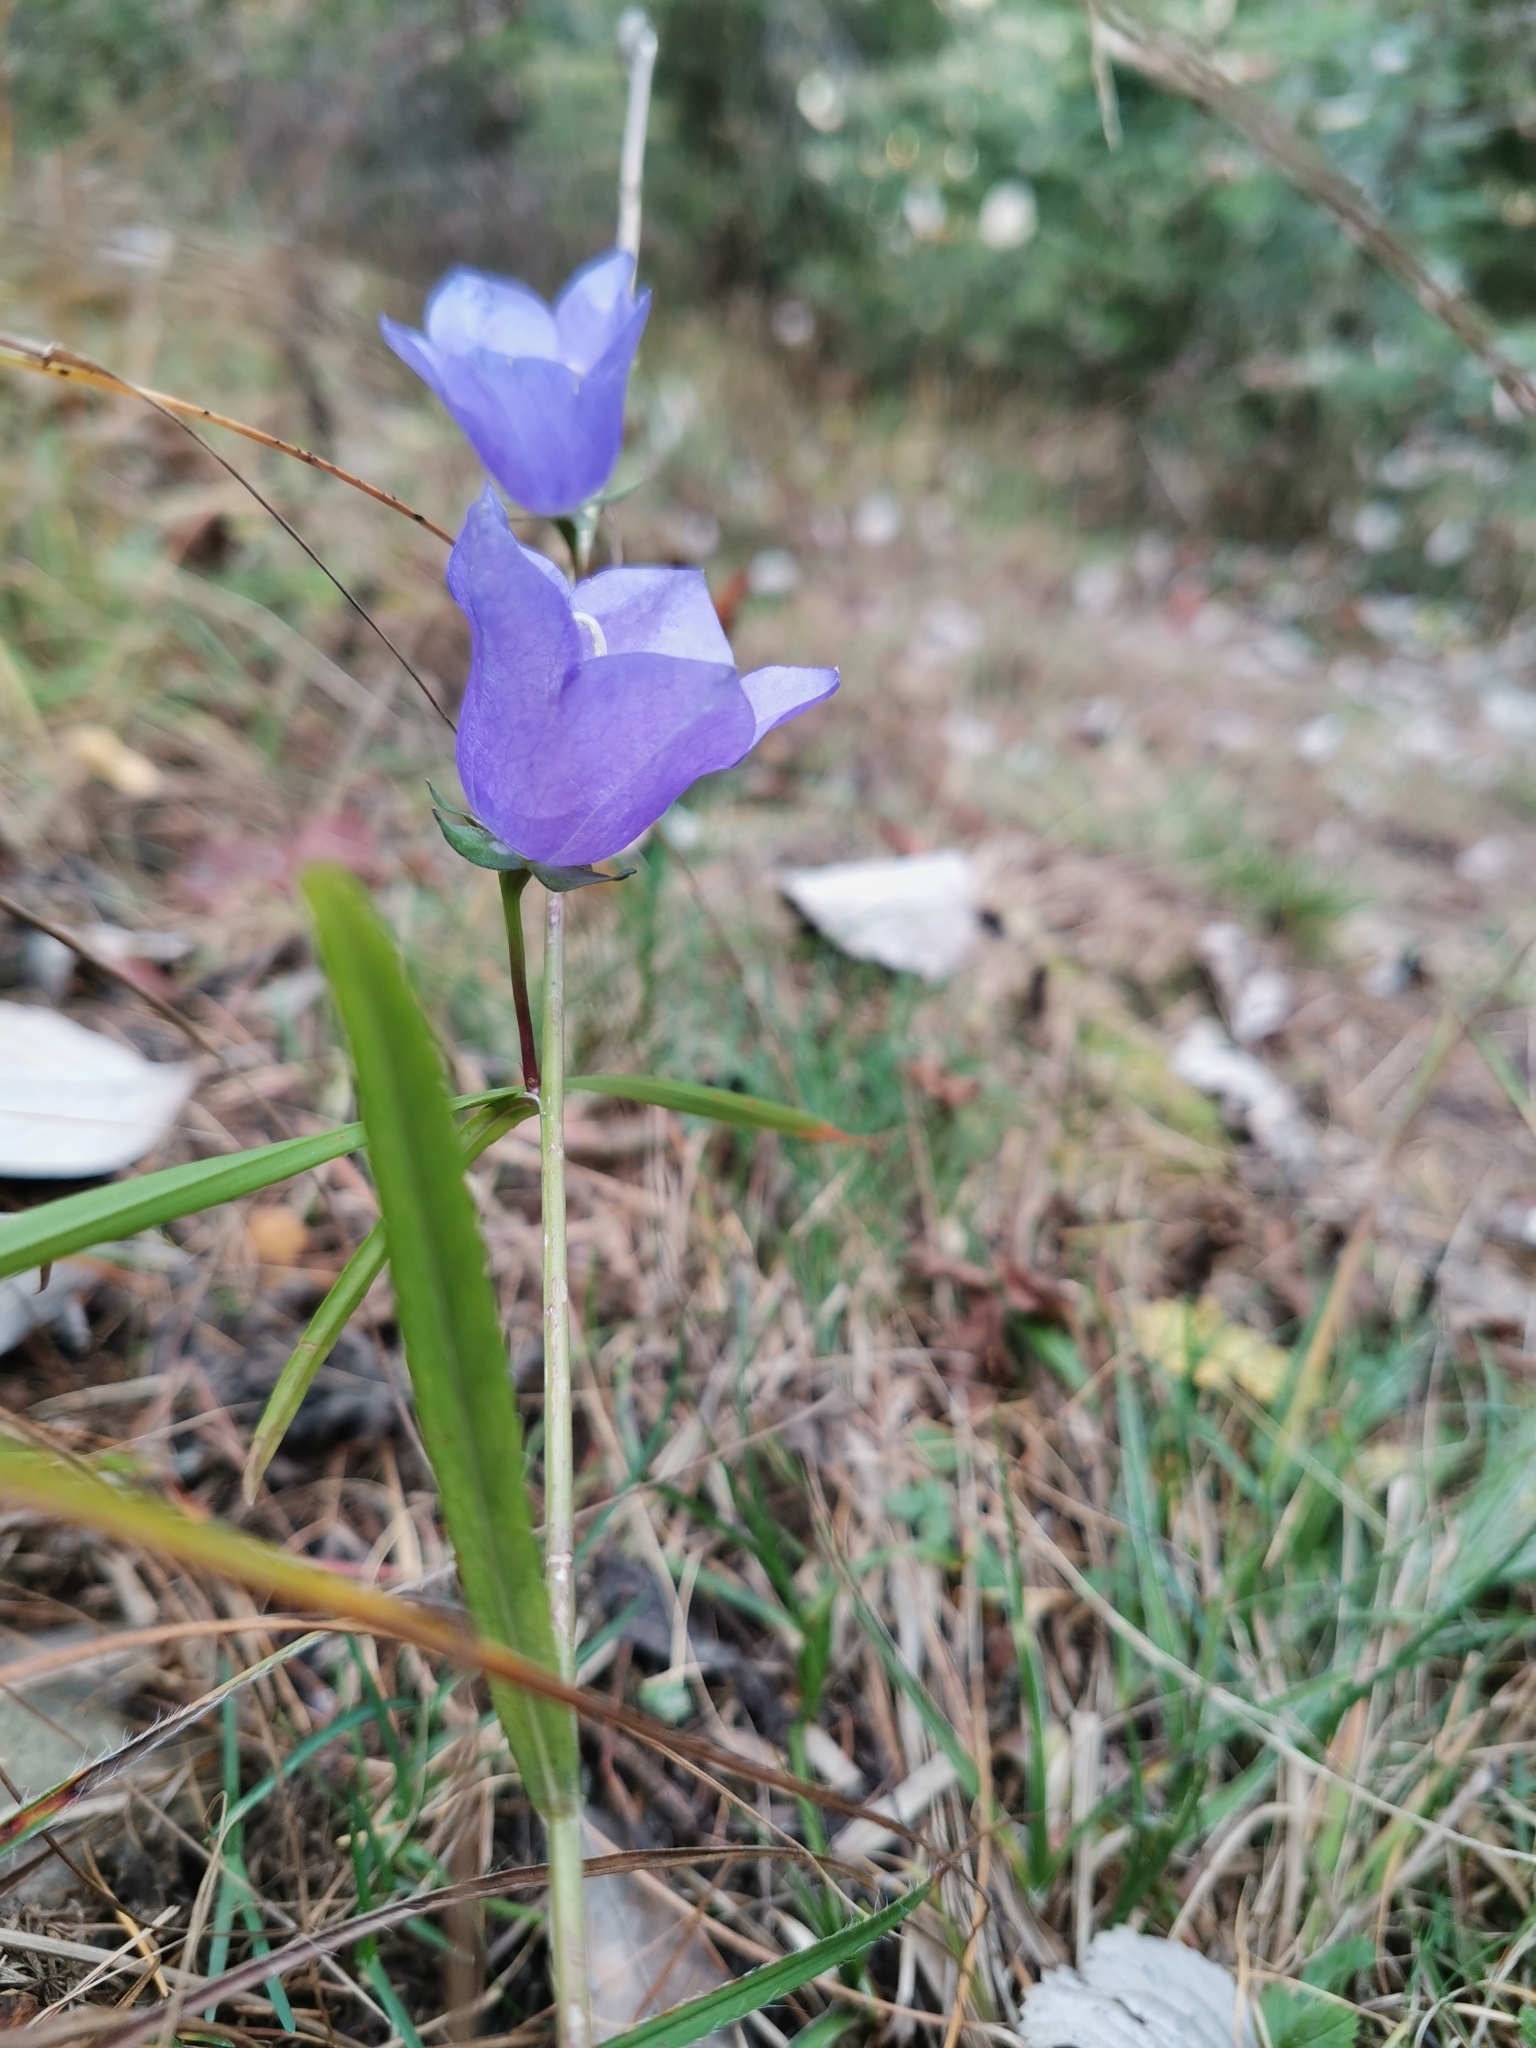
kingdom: Plantae
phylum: Tracheophyta
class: Magnoliopsida
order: Asterales
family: Campanulaceae
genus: Campanula
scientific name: Campanula persicifolia
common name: Peach-leaved bellflower
